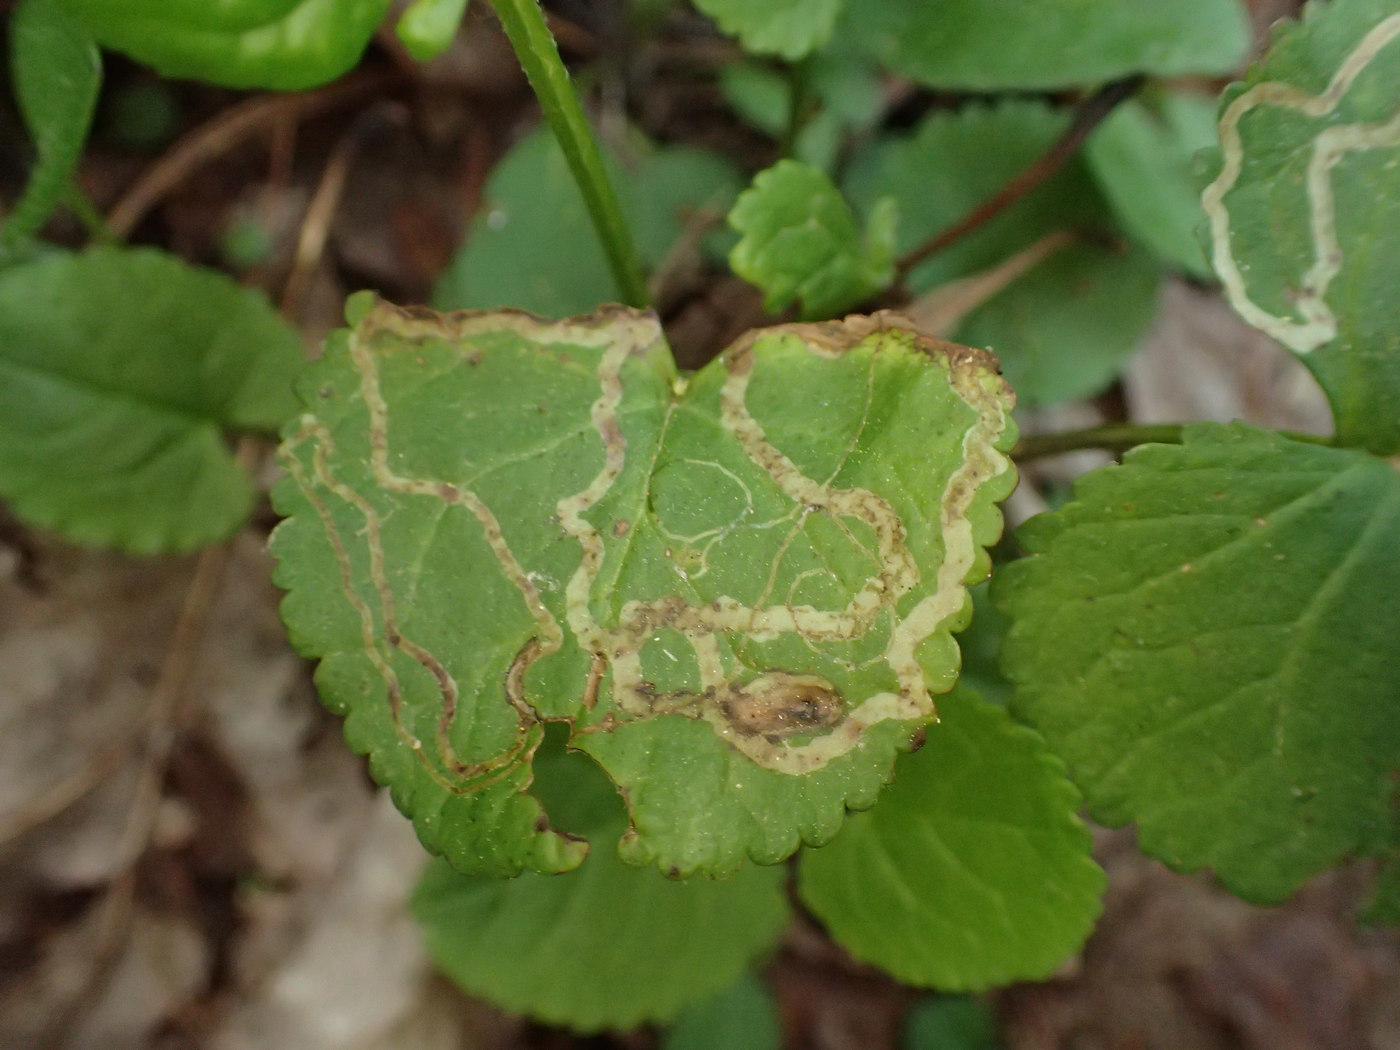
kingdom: Animalia
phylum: Arthropoda
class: Insecta
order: Lepidoptera
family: Gracillariidae
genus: Phyllocnistis
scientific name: Phyllocnistis insignis
